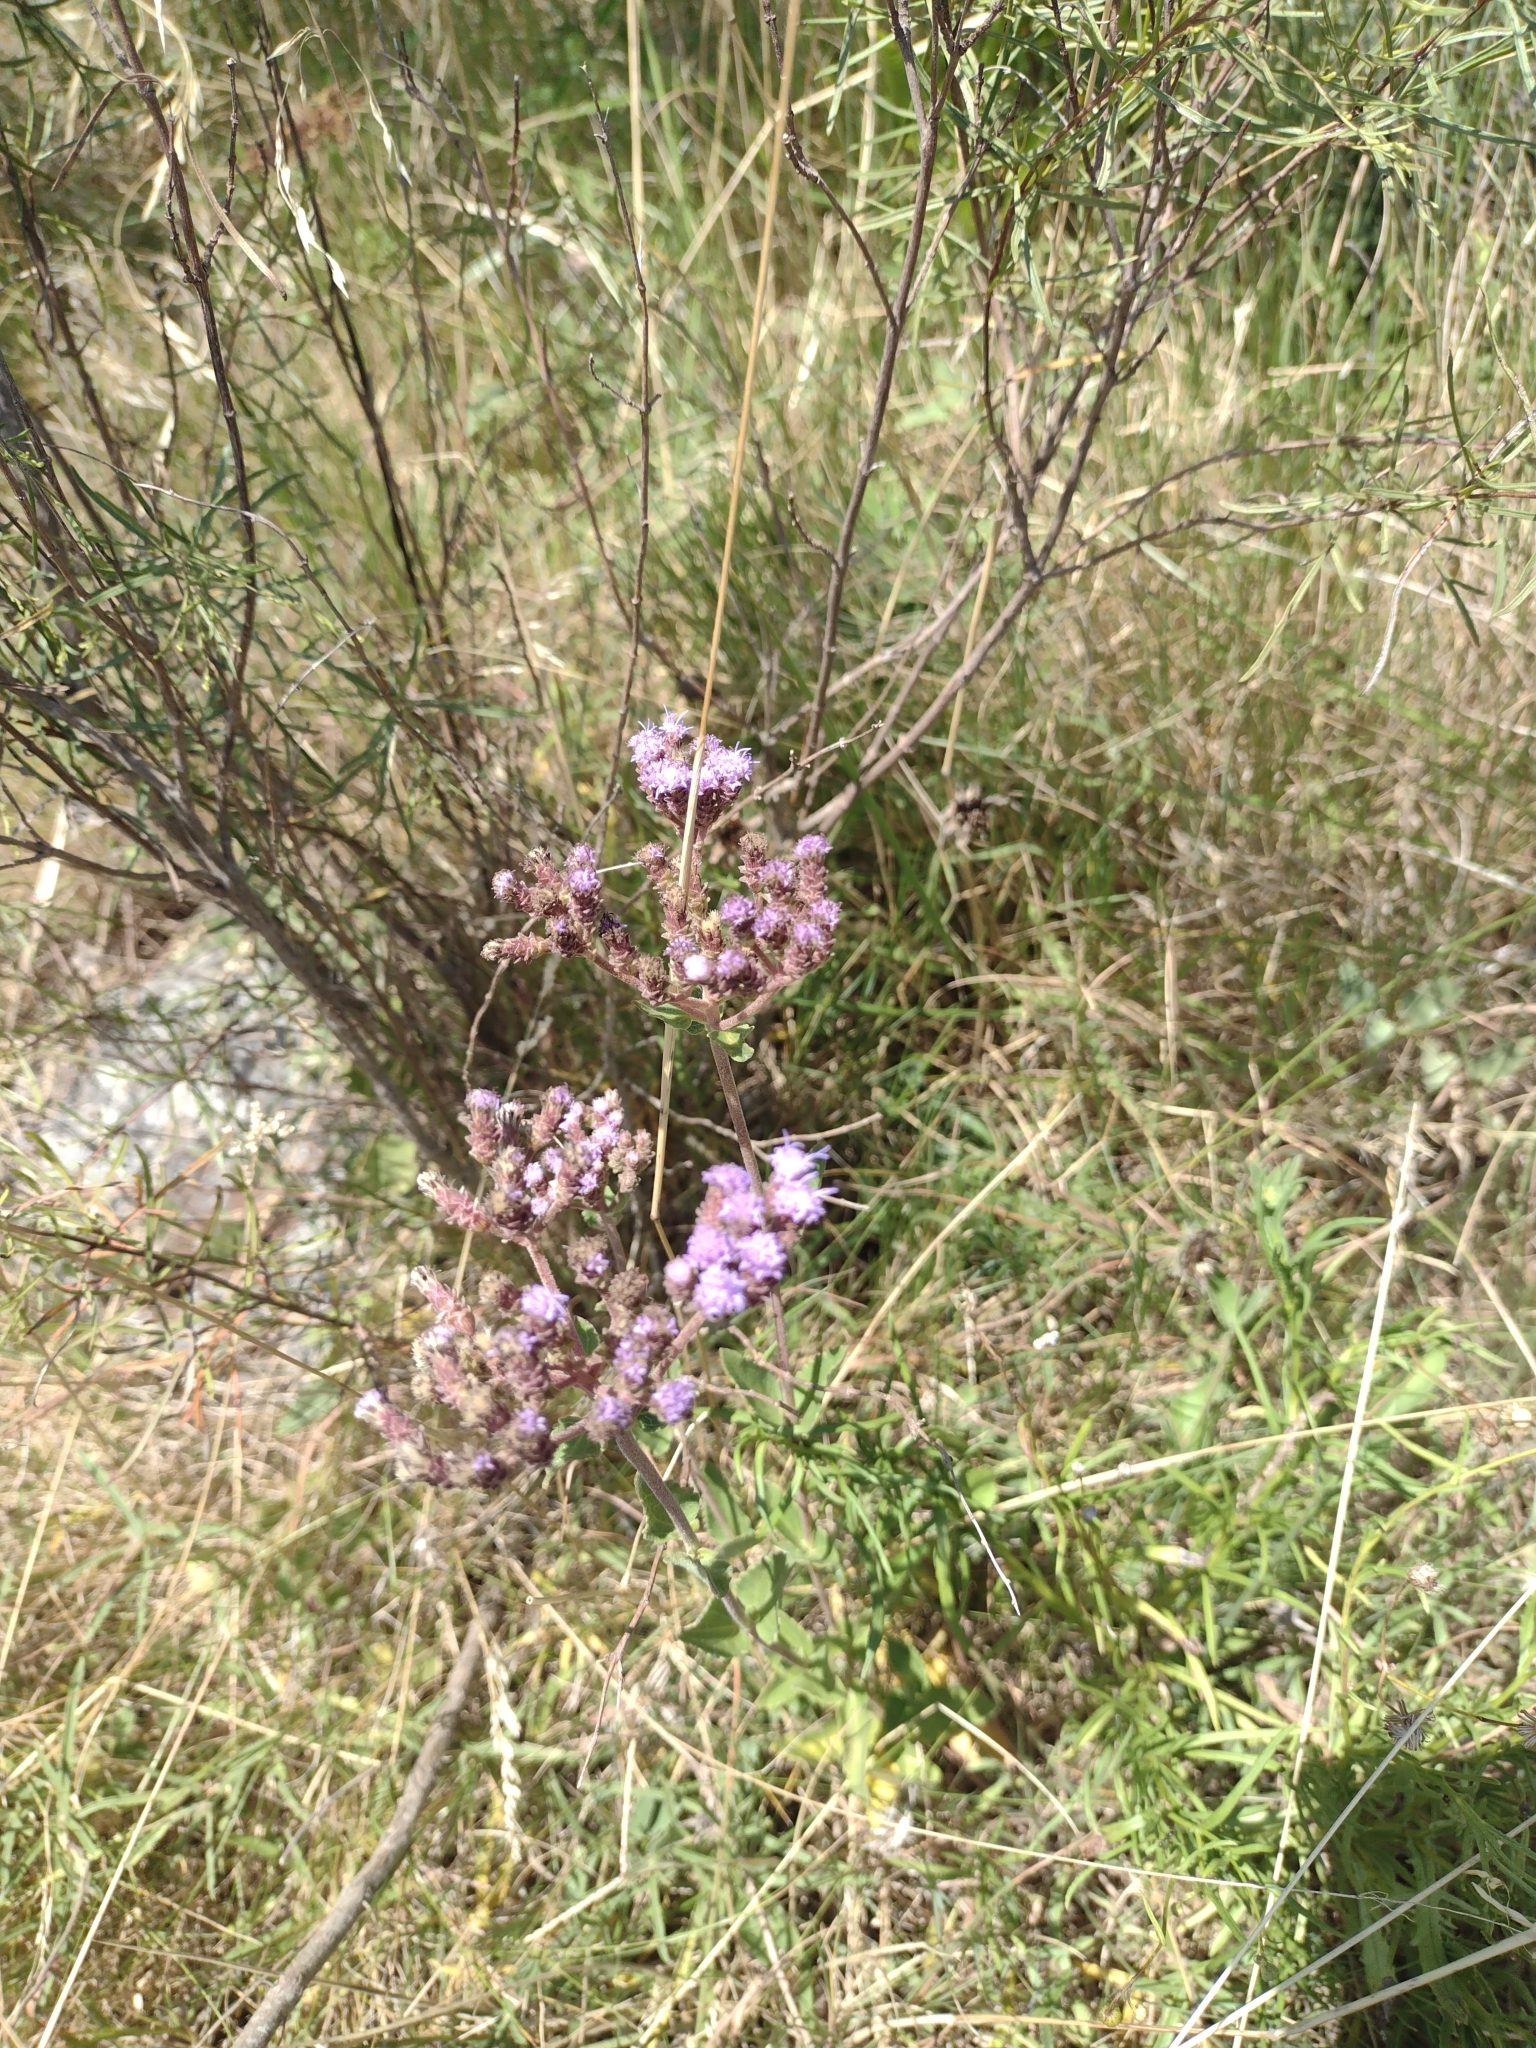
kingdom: Plantae
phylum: Tracheophyta
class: Magnoliopsida
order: Asterales
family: Asteraceae
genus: Chromolaena
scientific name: Chromolaena squarrulosa
